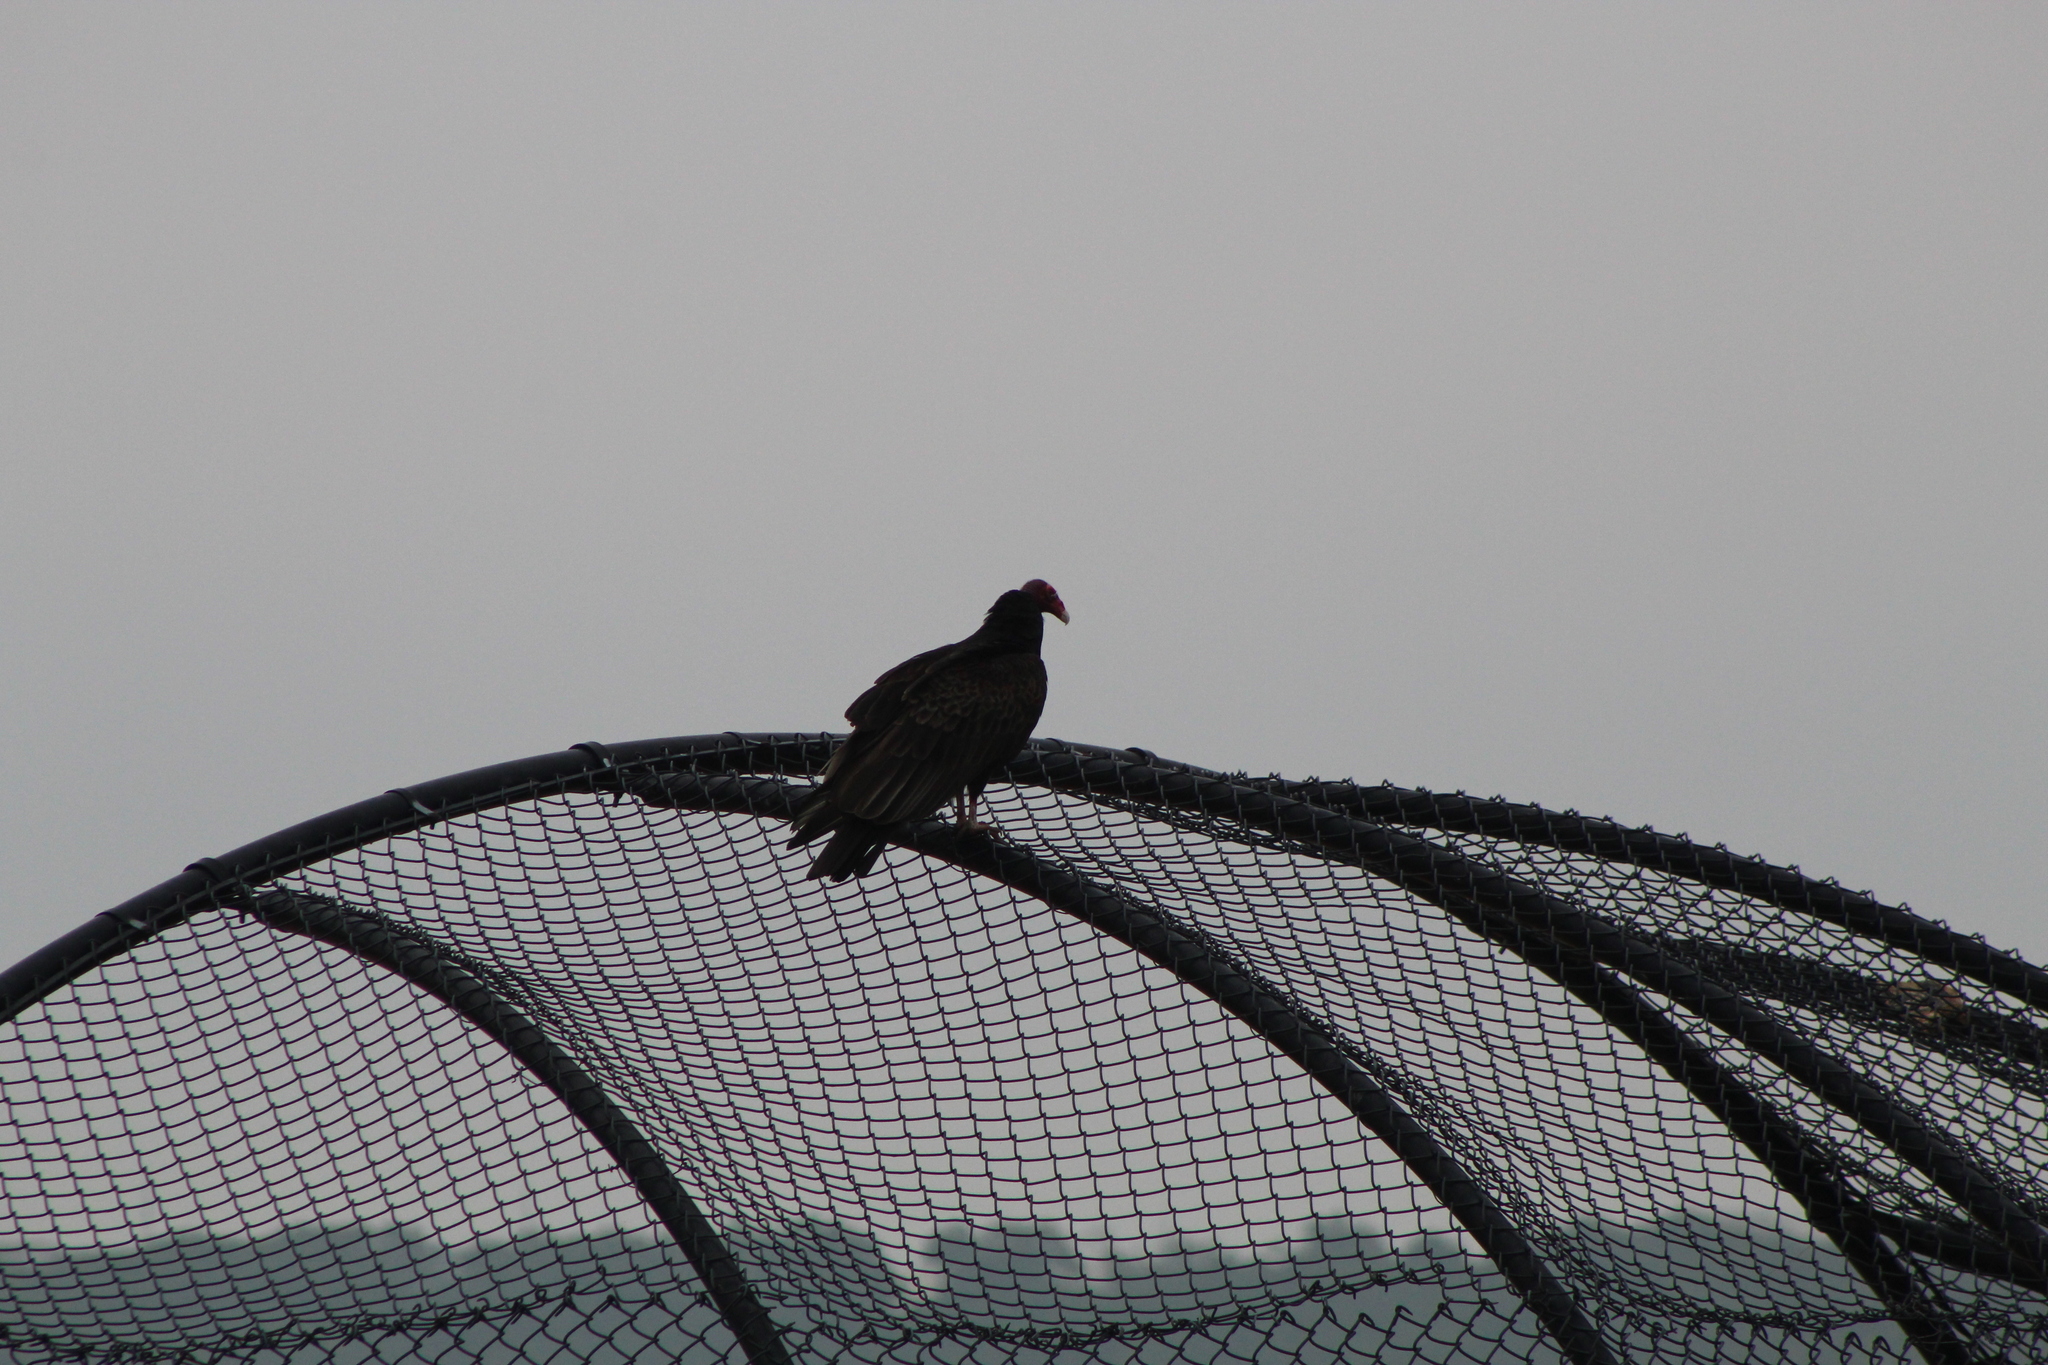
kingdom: Animalia
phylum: Chordata
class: Aves
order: Accipitriformes
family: Cathartidae
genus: Cathartes
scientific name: Cathartes aura
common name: Turkey vulture
